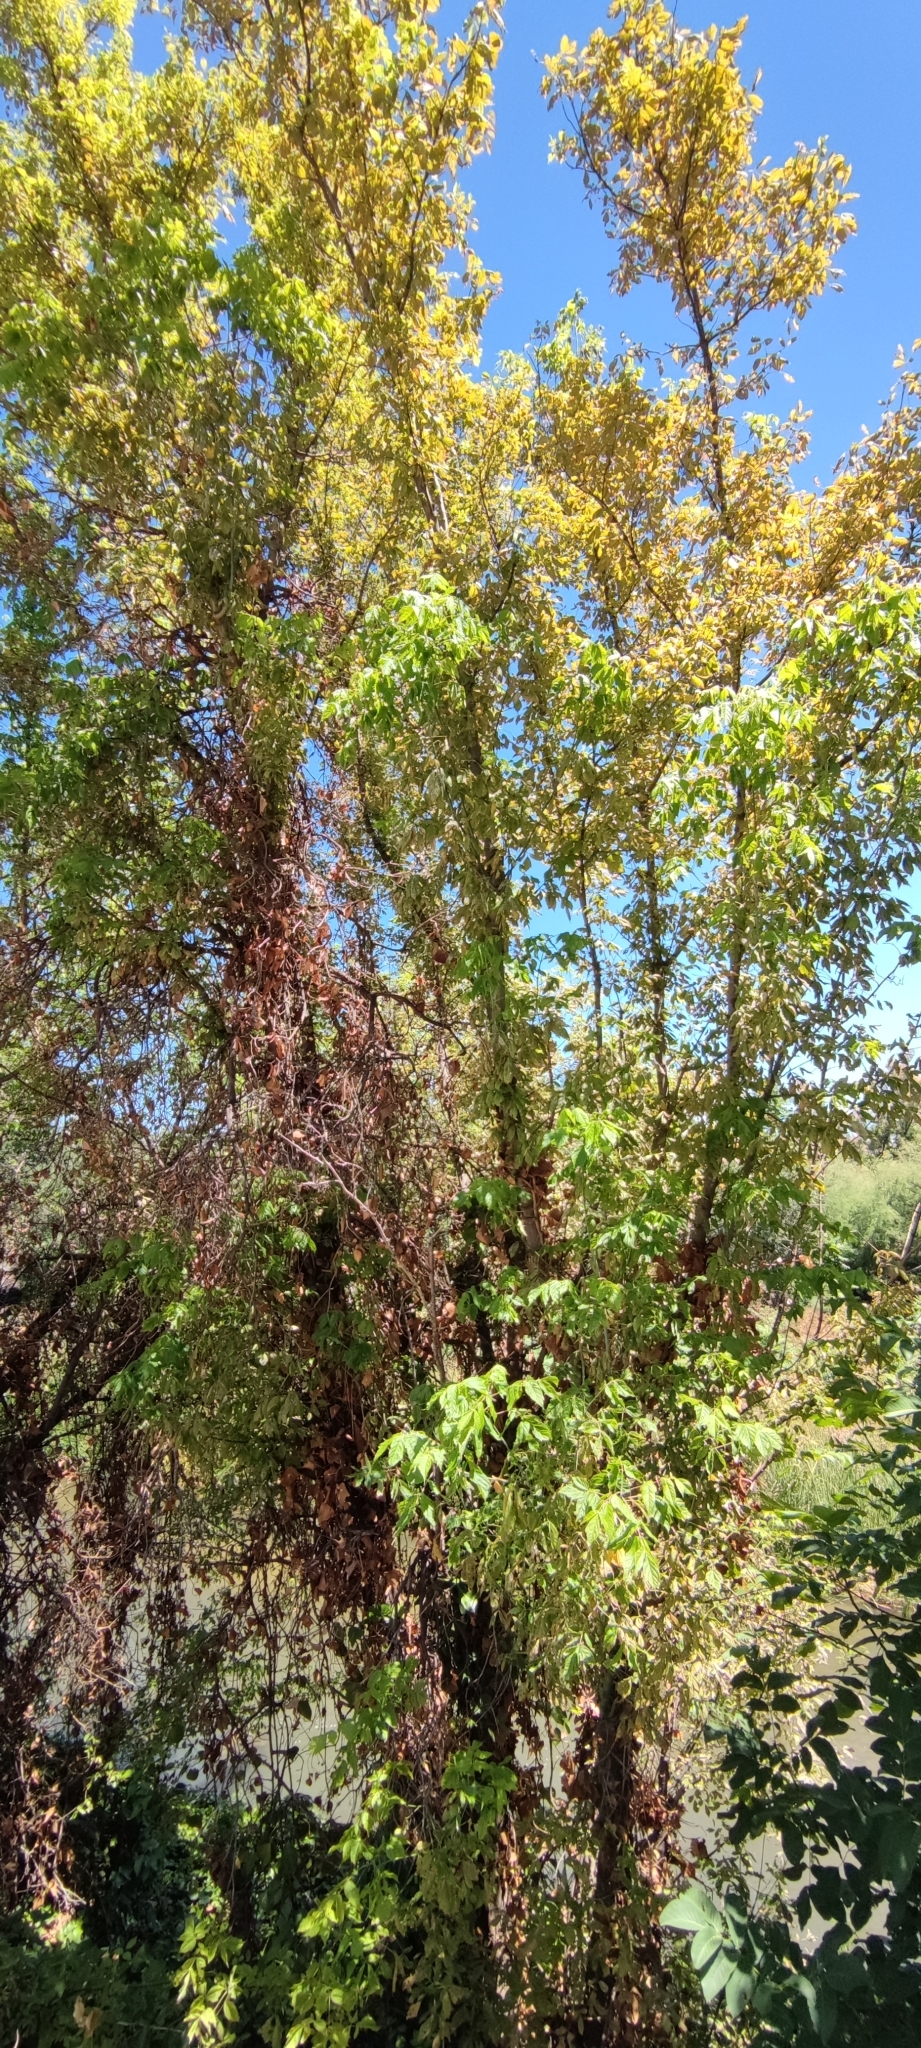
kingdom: Plantae
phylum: Tracheophyta
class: Magnoliopsida
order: Sapindales
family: Sapindaceae
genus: Acer
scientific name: Acer negundo
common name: Ashleaf maple
